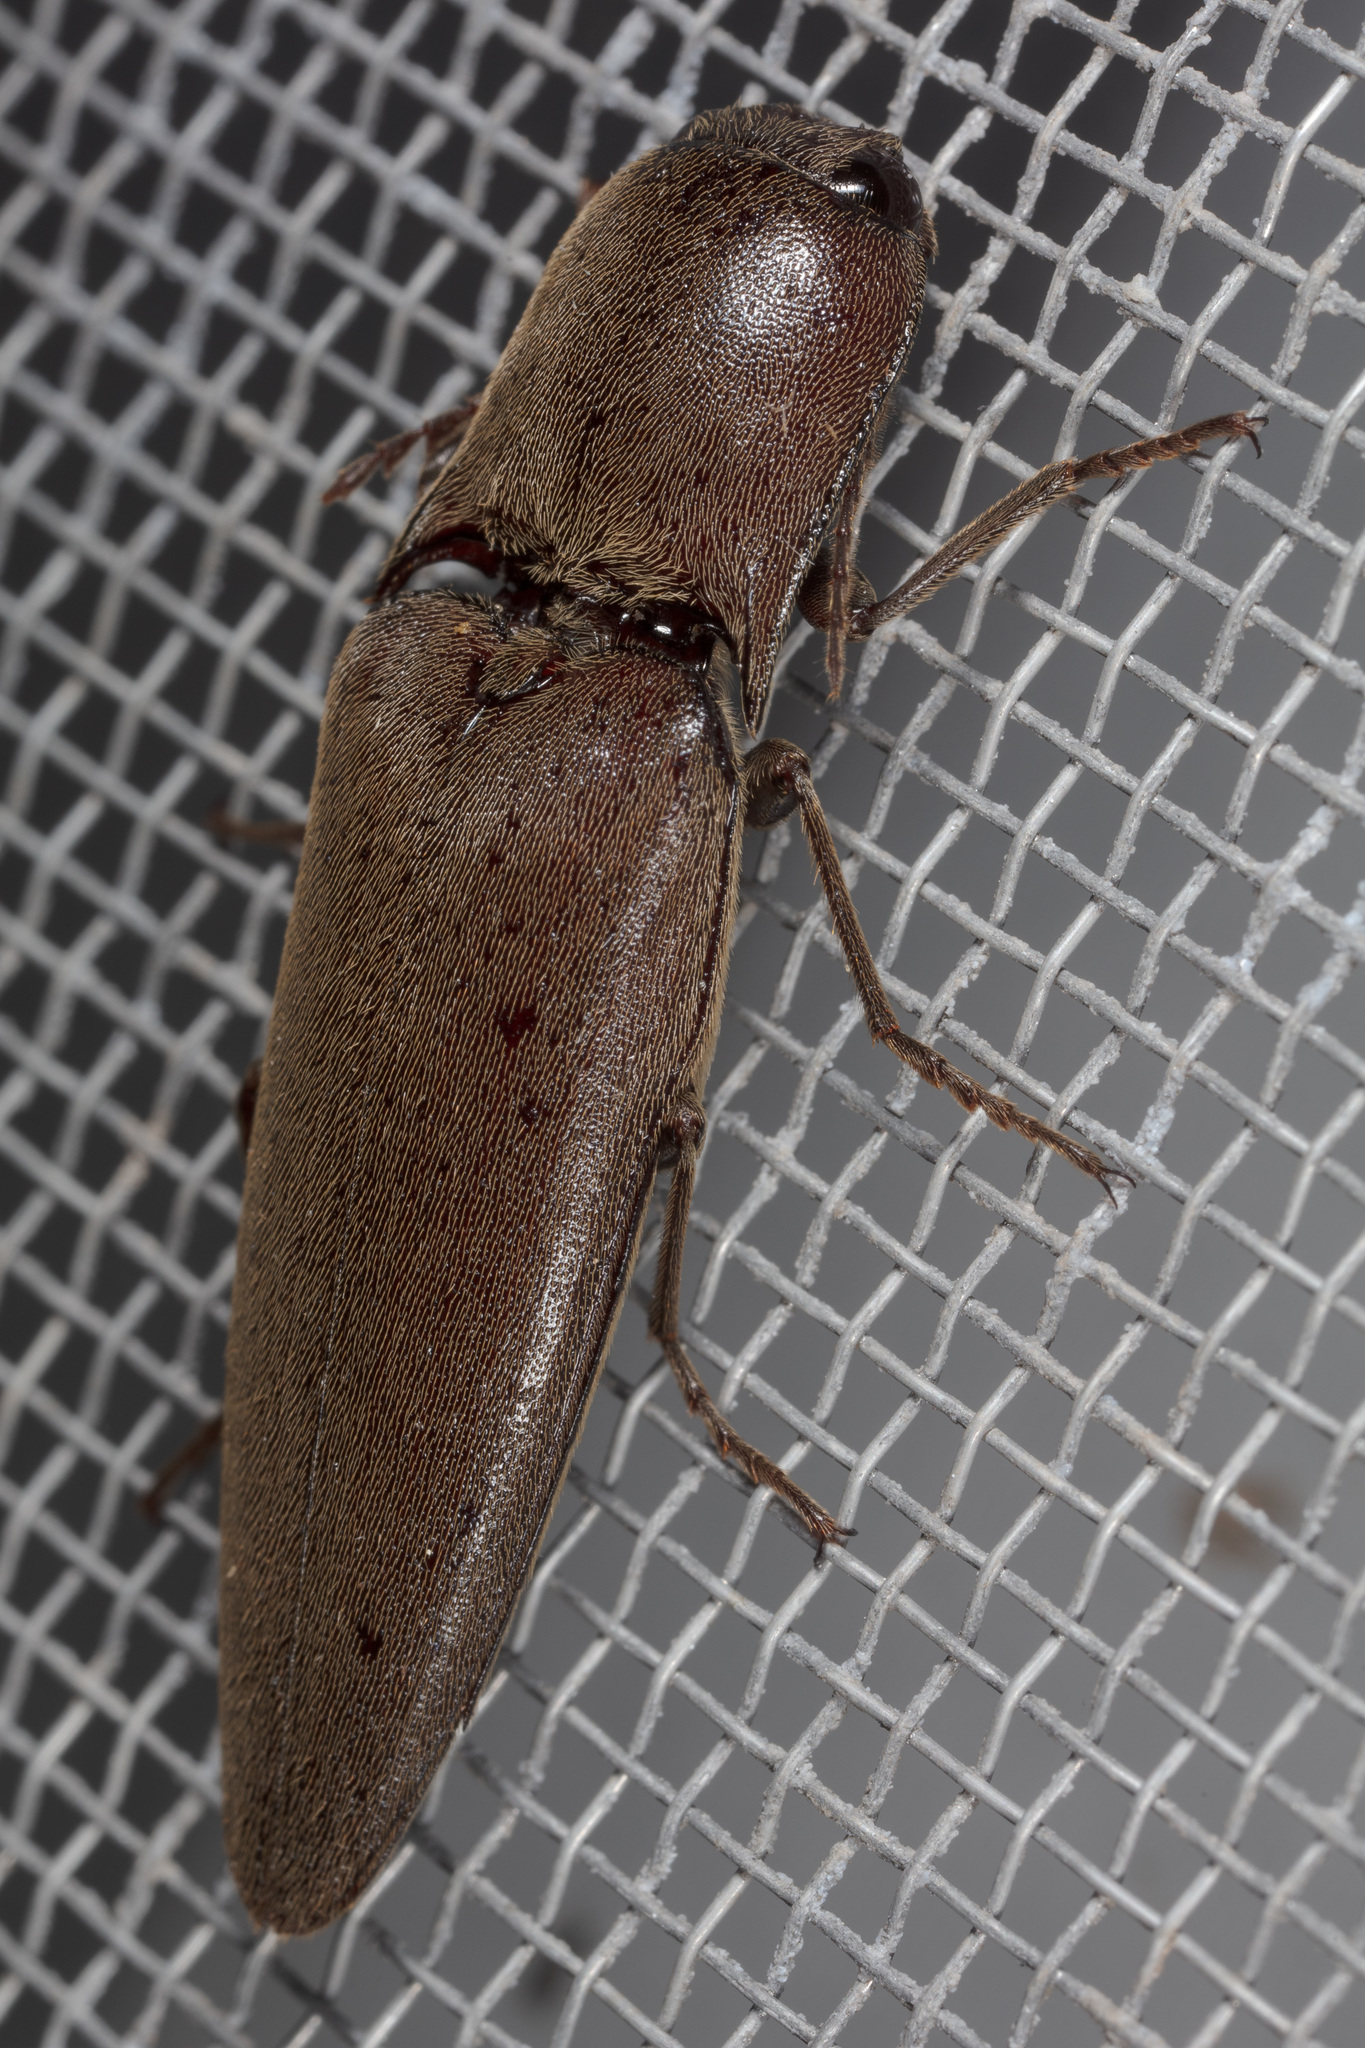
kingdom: Animalia
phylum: Arthropoda
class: Insecta
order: Coleoptera
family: Elateridae
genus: Orthostethus
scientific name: Orthostethus infuscatus
